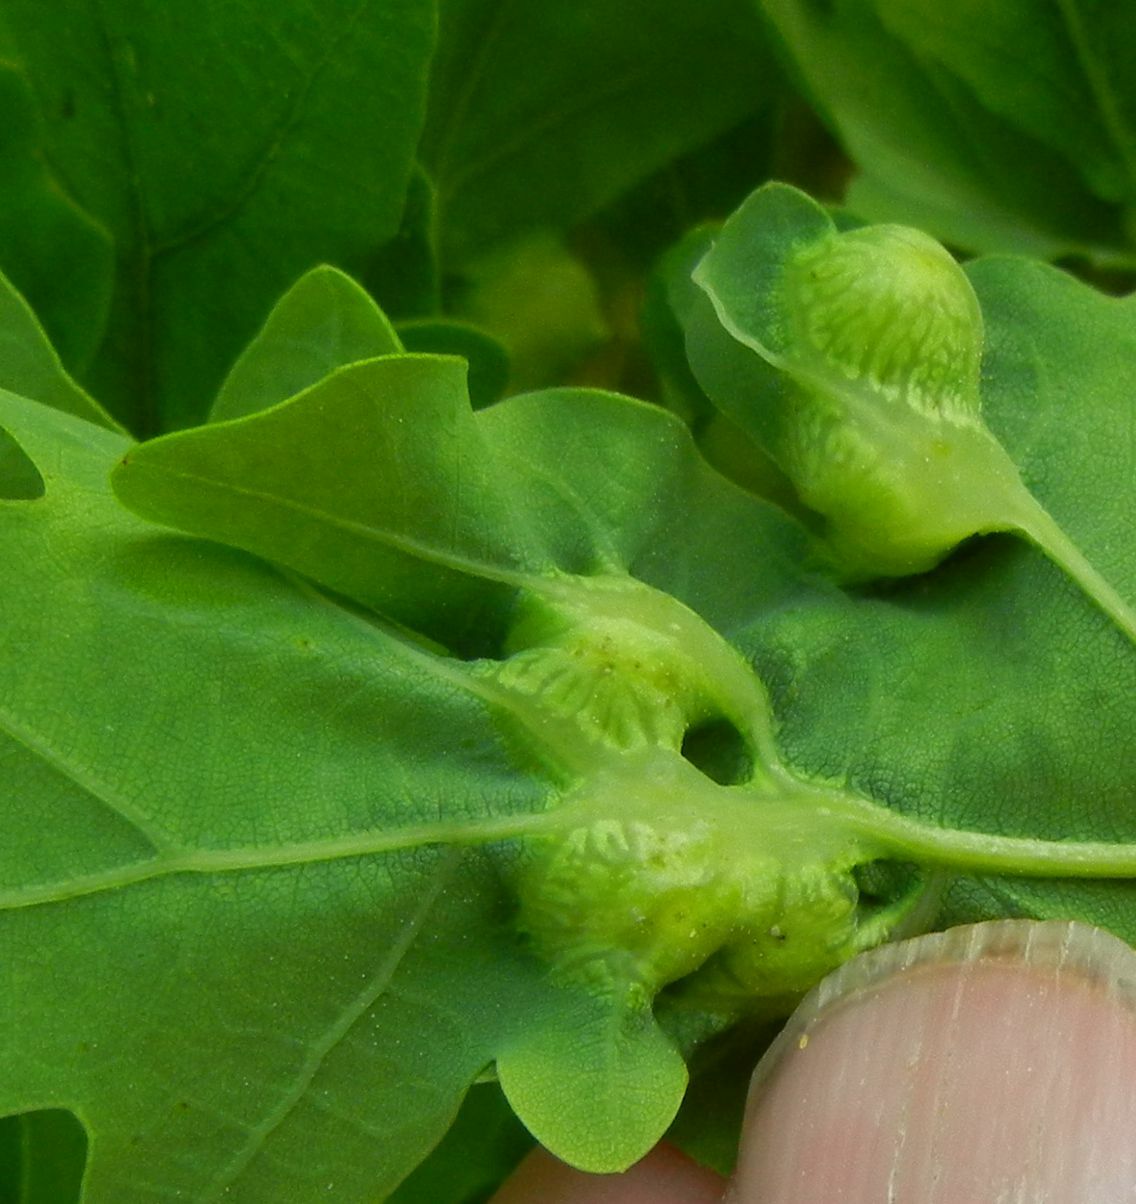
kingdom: Animalia
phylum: Arthropoda
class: Insecta
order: Hymenoptera
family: Cynipidae
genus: Andricus
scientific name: Andricus curvator
